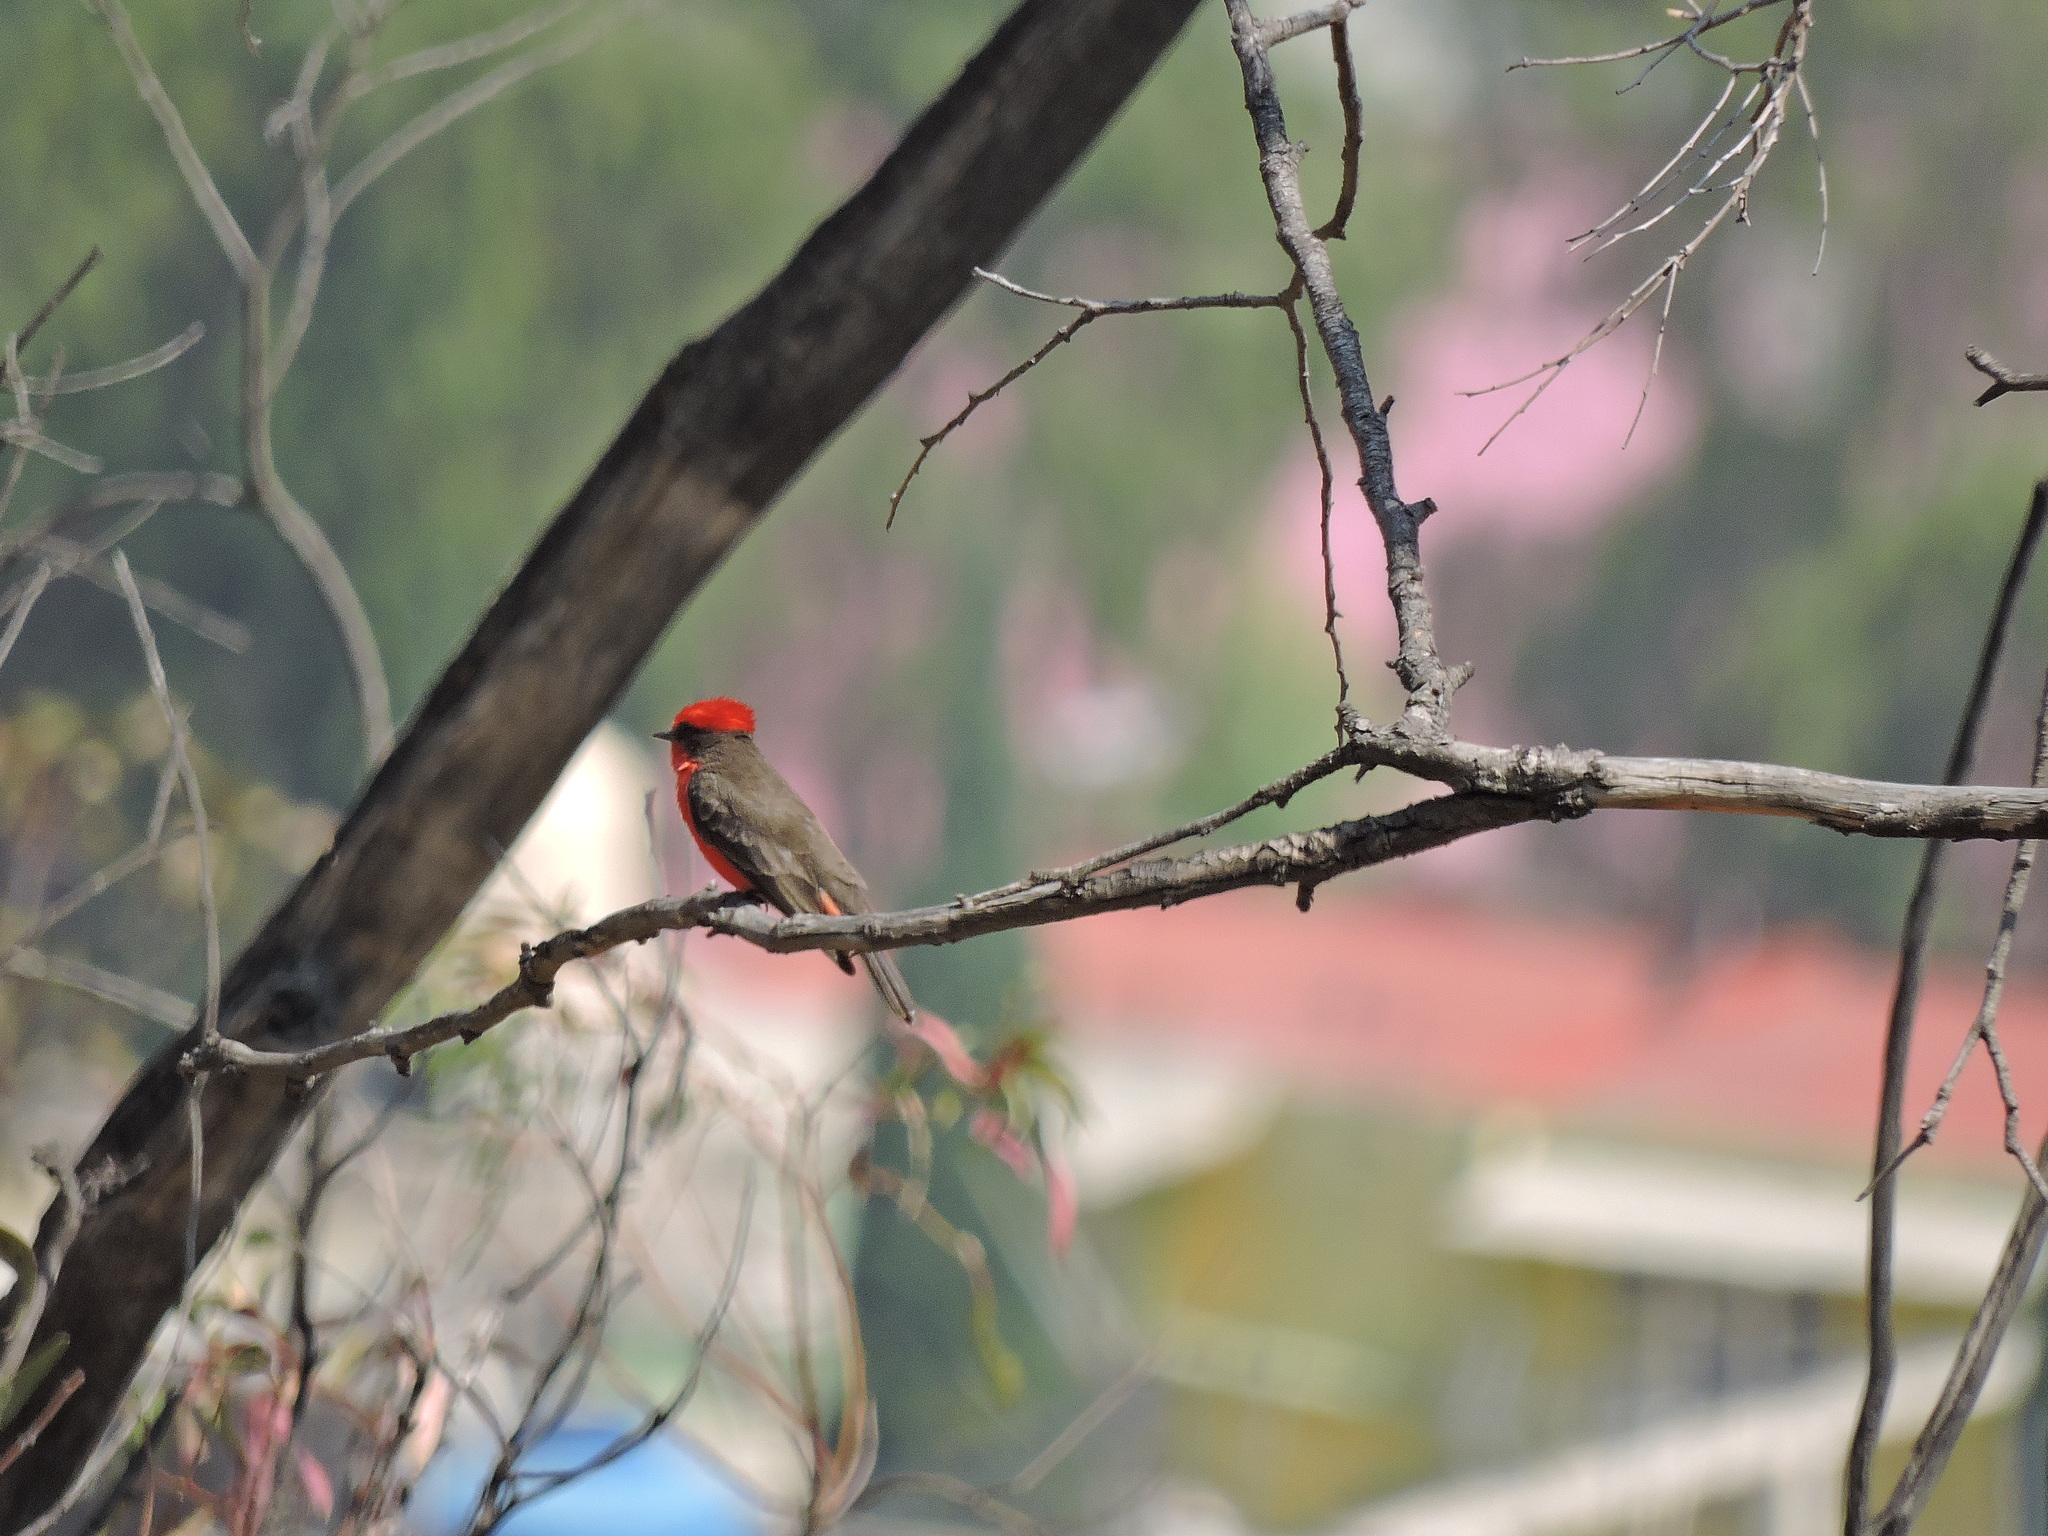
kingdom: Animalia
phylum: Chordata
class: Aves
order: Passeriformes
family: Tyrannidae
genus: Pyrocephalus
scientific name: Pyrocephalus rubinus
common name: Vermilion flycatcher
